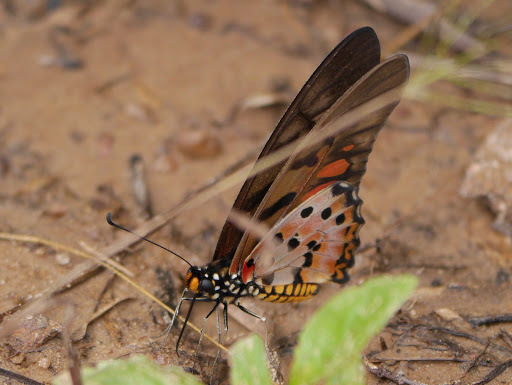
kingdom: Animalia
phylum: Arthropoda
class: Insecta
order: Lepidoptera
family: Papilionidae
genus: Graphium
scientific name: Graphium ridleyanus
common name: Acraea swordtail
